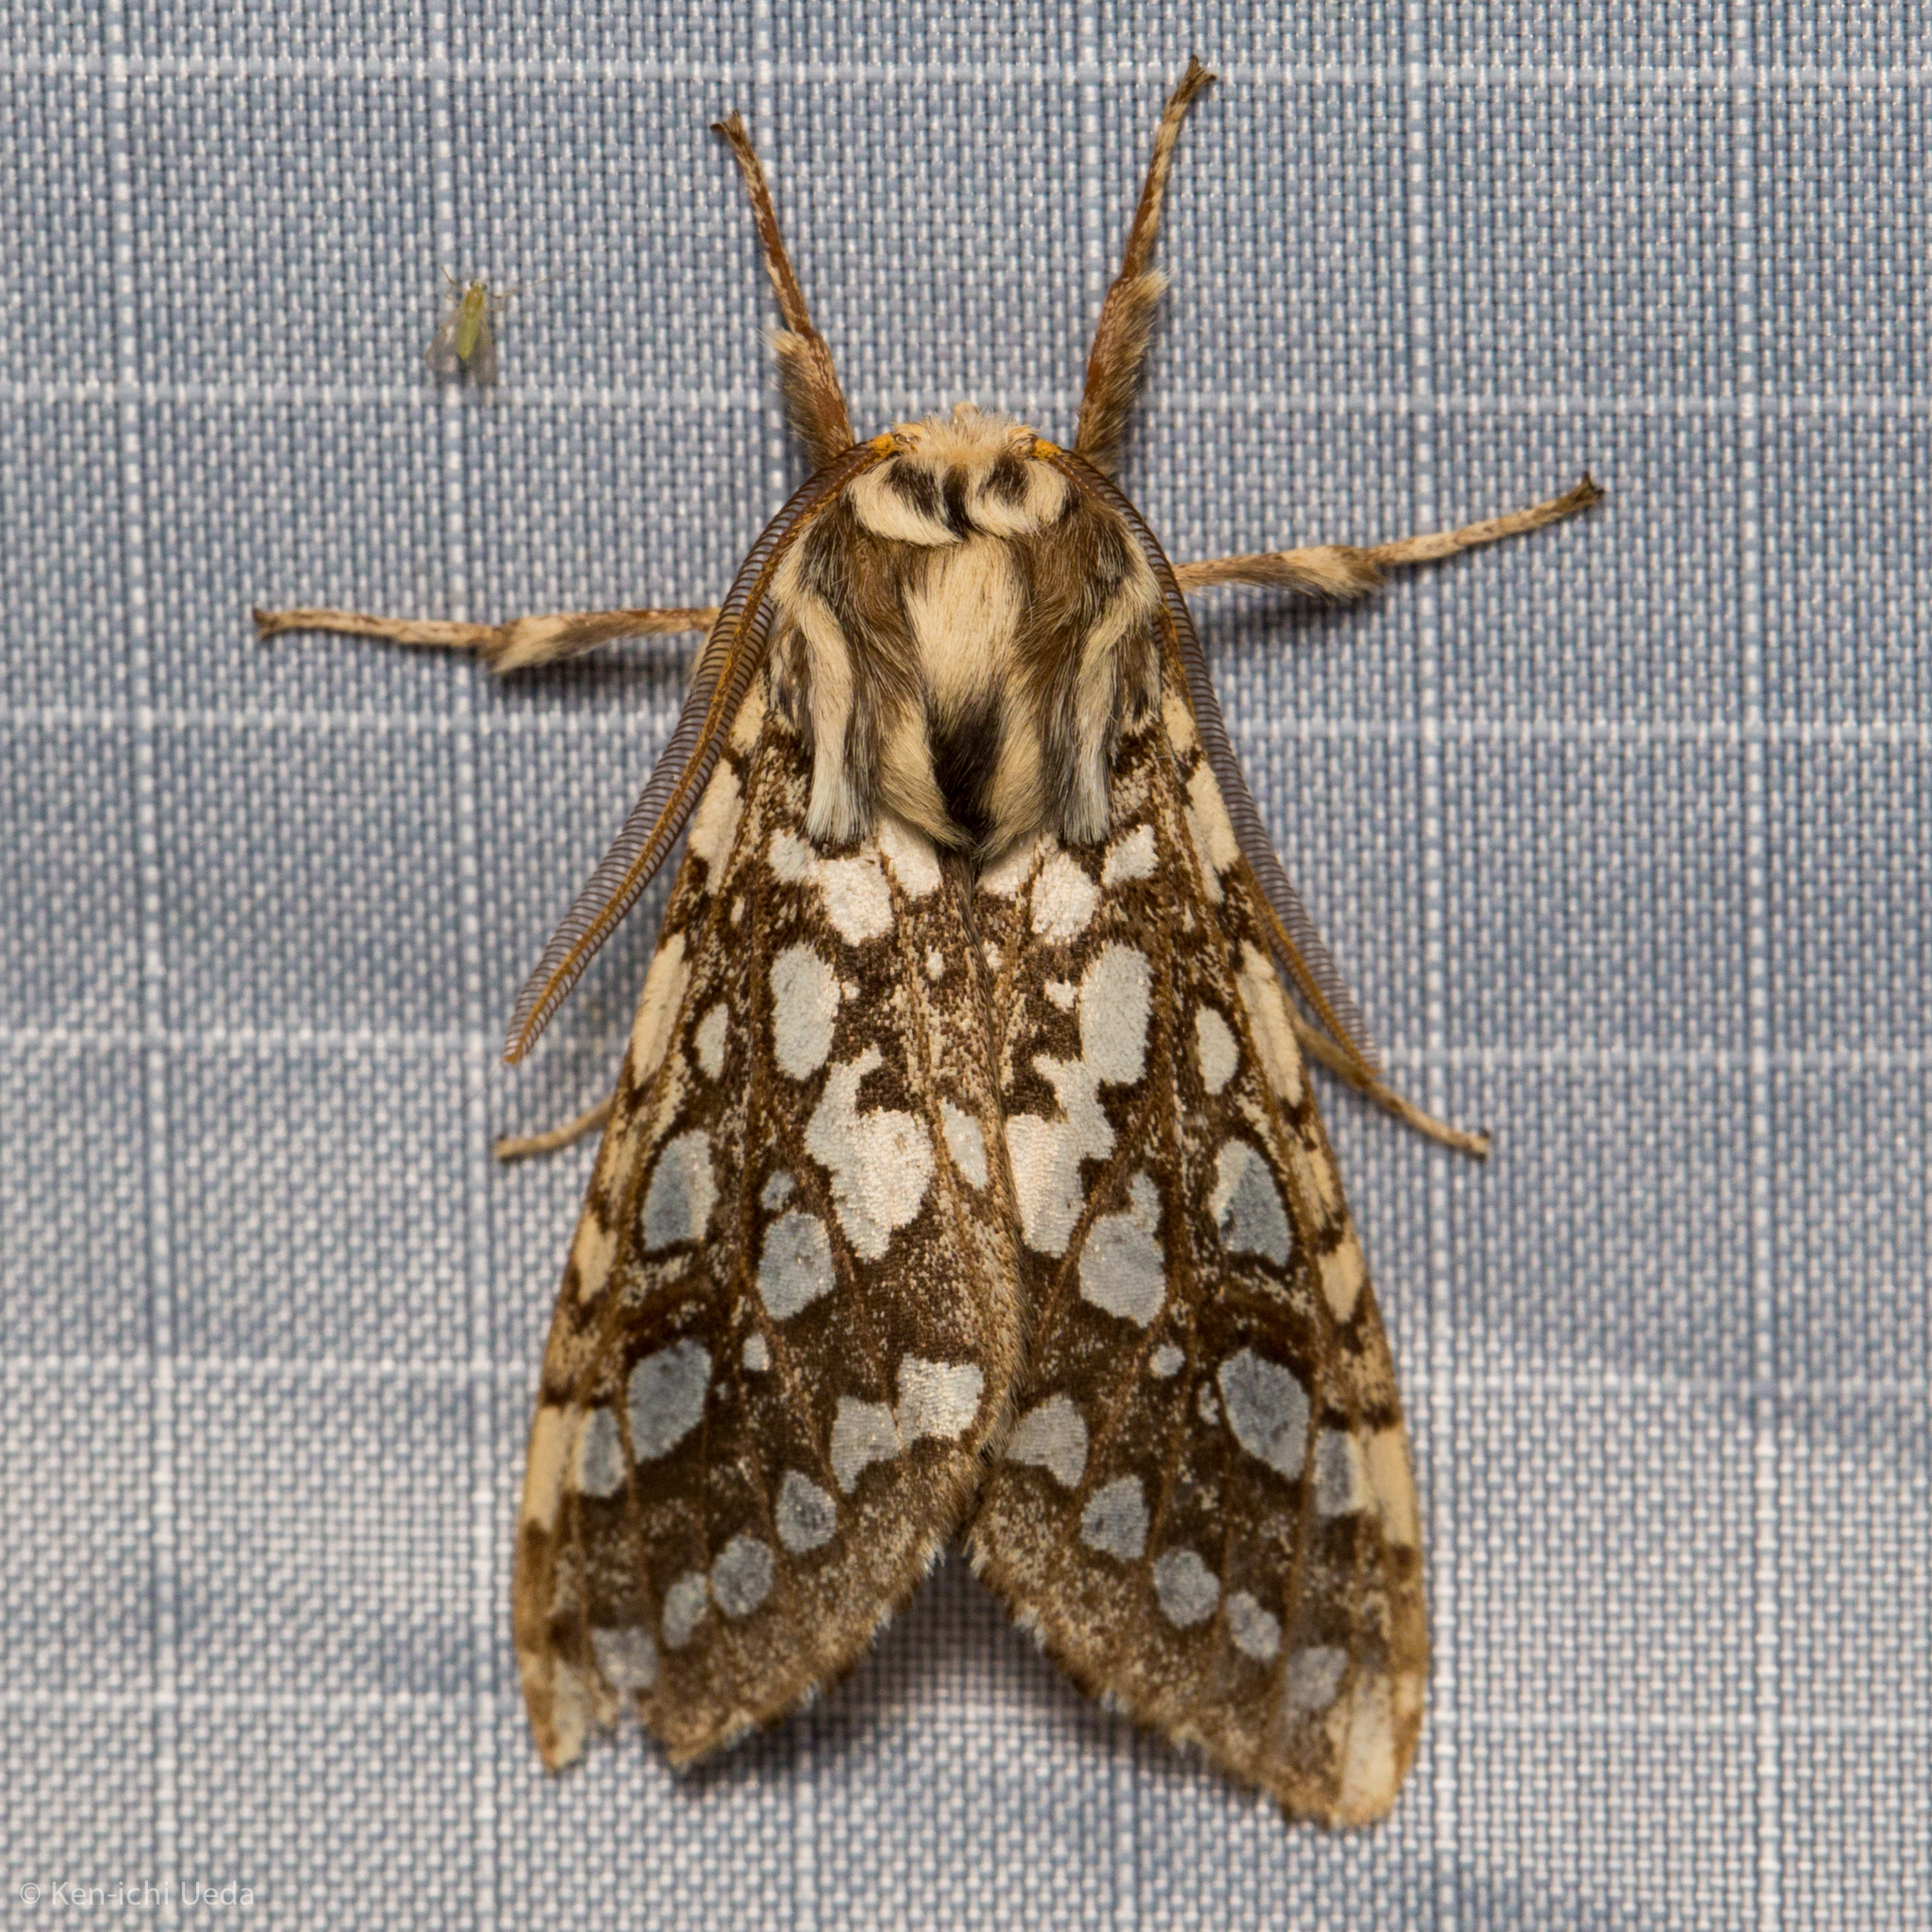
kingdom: Animalia
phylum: Arthropoda
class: Insecta
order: Lepidoptera
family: Erebidae
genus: Lophocampa
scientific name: Lophocampa argentata
